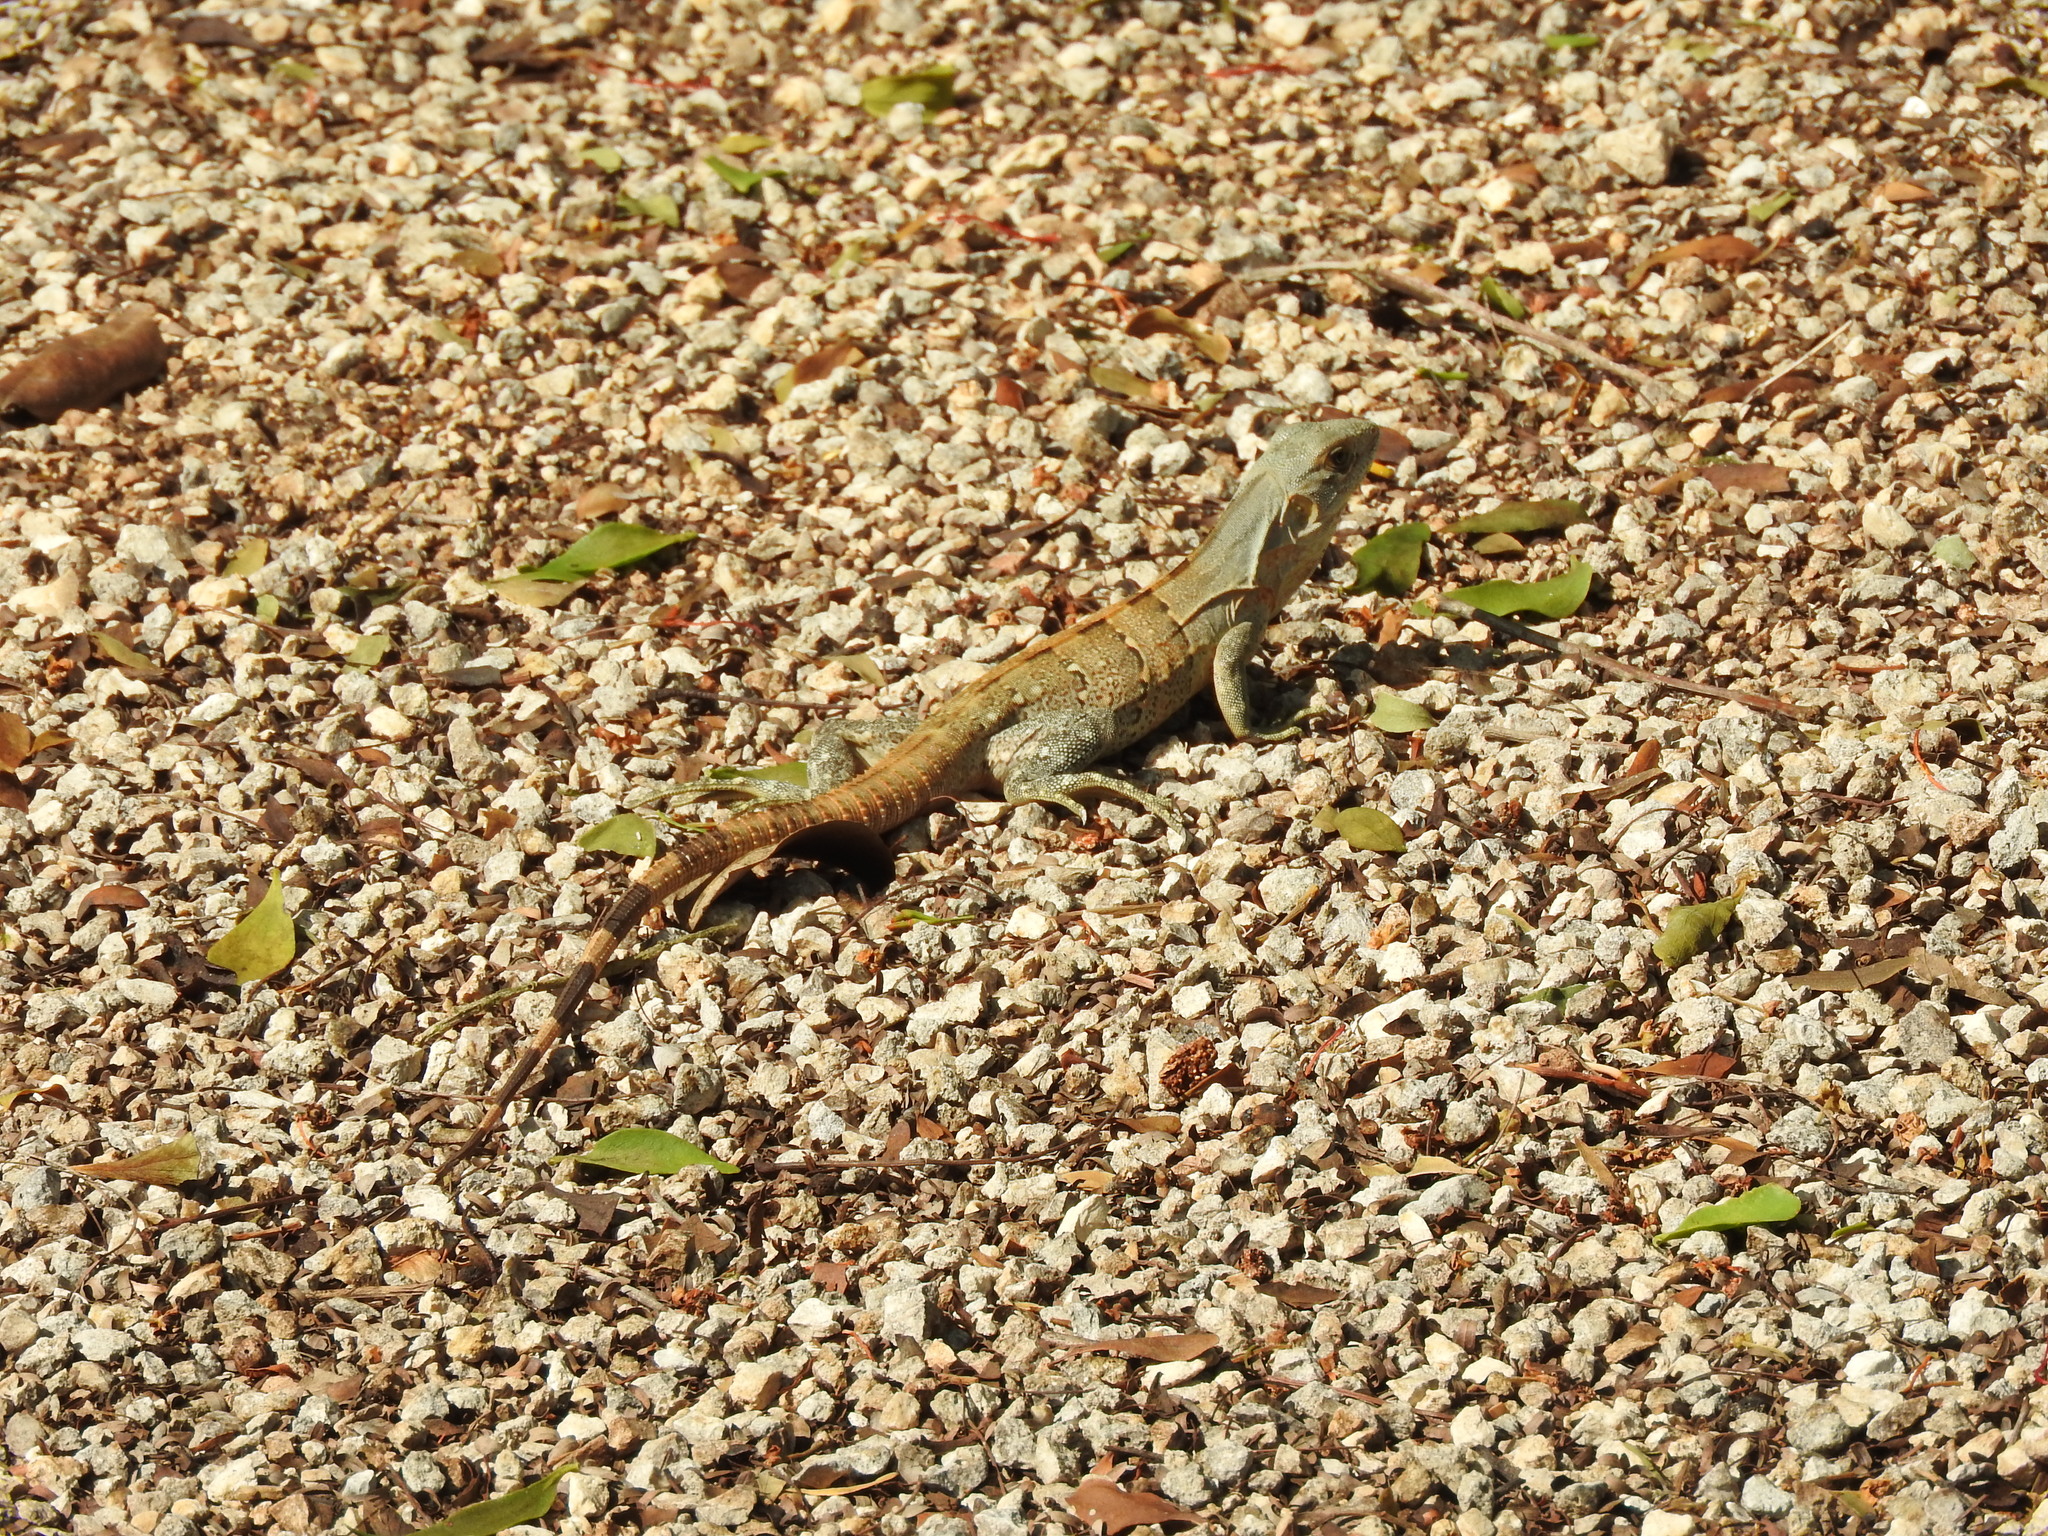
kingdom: Animalia
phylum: Chordata
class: Squamata
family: Iguanidae
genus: Ctenosaura
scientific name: Ctenosaura similis
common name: Black spiny-tailed iguana
